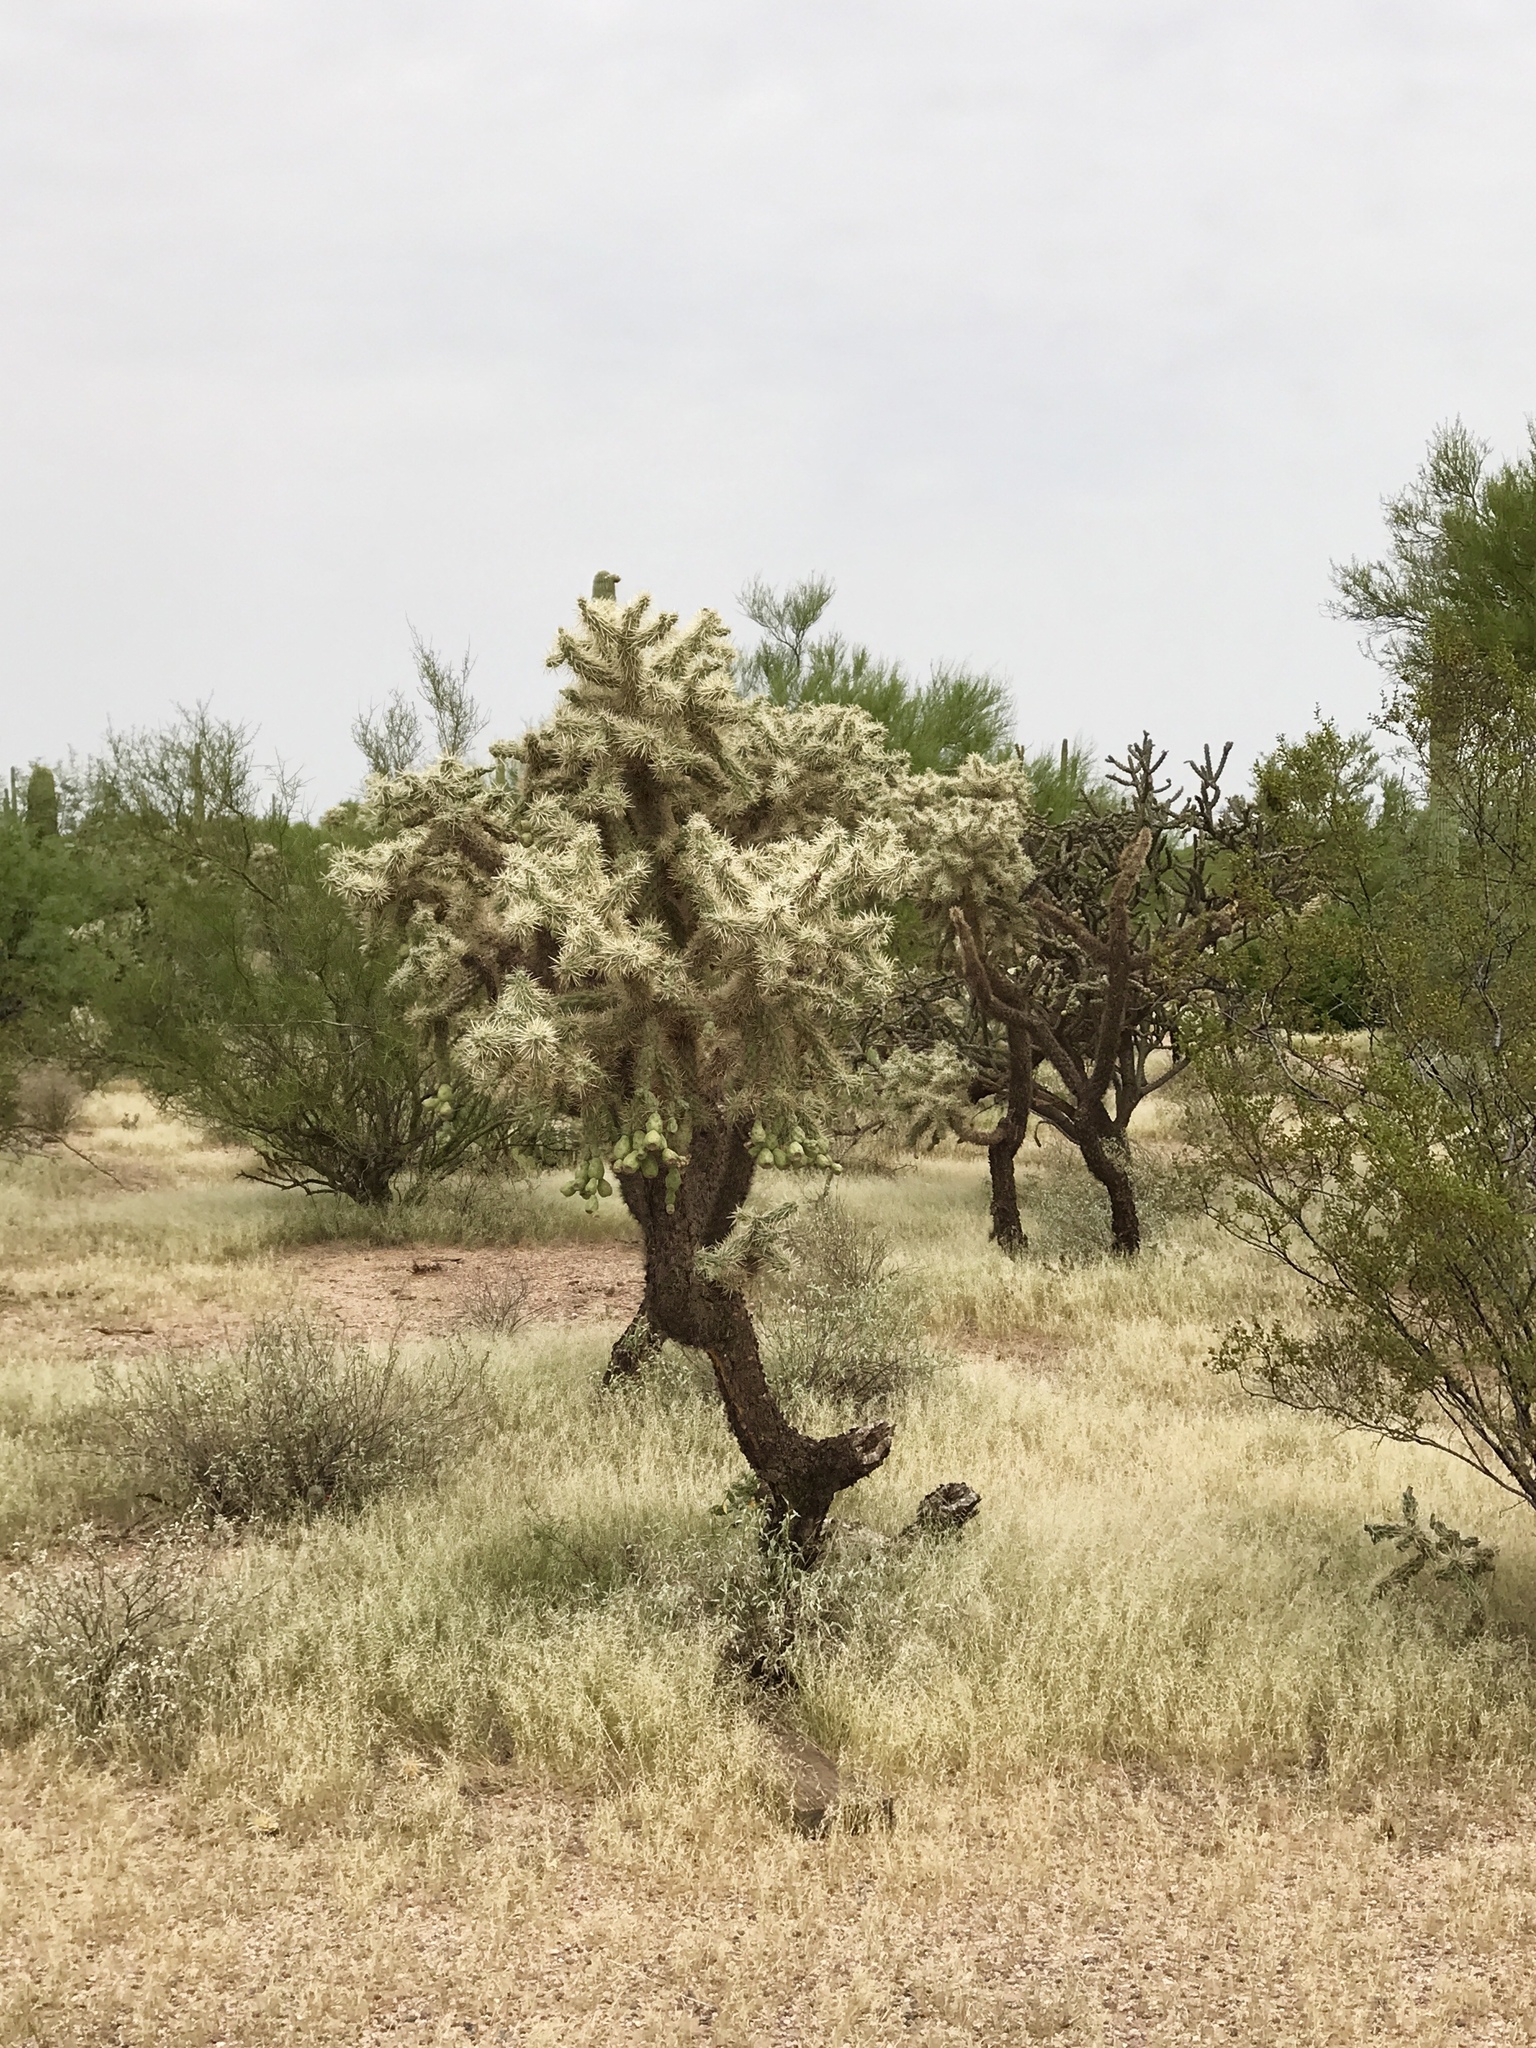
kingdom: Plantae
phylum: Tracheophyta
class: Magnoliopsida
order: Caryophyllales
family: Cactaceae
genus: Cylindropuntia
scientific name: Cylindropuntia fulgida
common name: Jumping cholla
